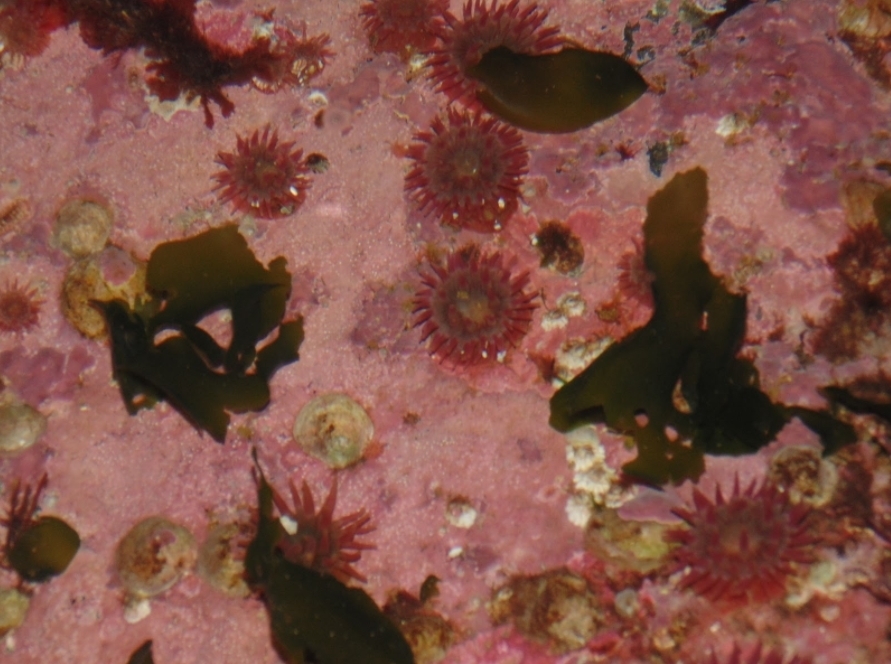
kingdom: Animalia
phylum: Cnidaria
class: Anthozoa
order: Actiniaria
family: Actiniidae
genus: Urticina
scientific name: Urticina crassicornis
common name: Mottled anemone
